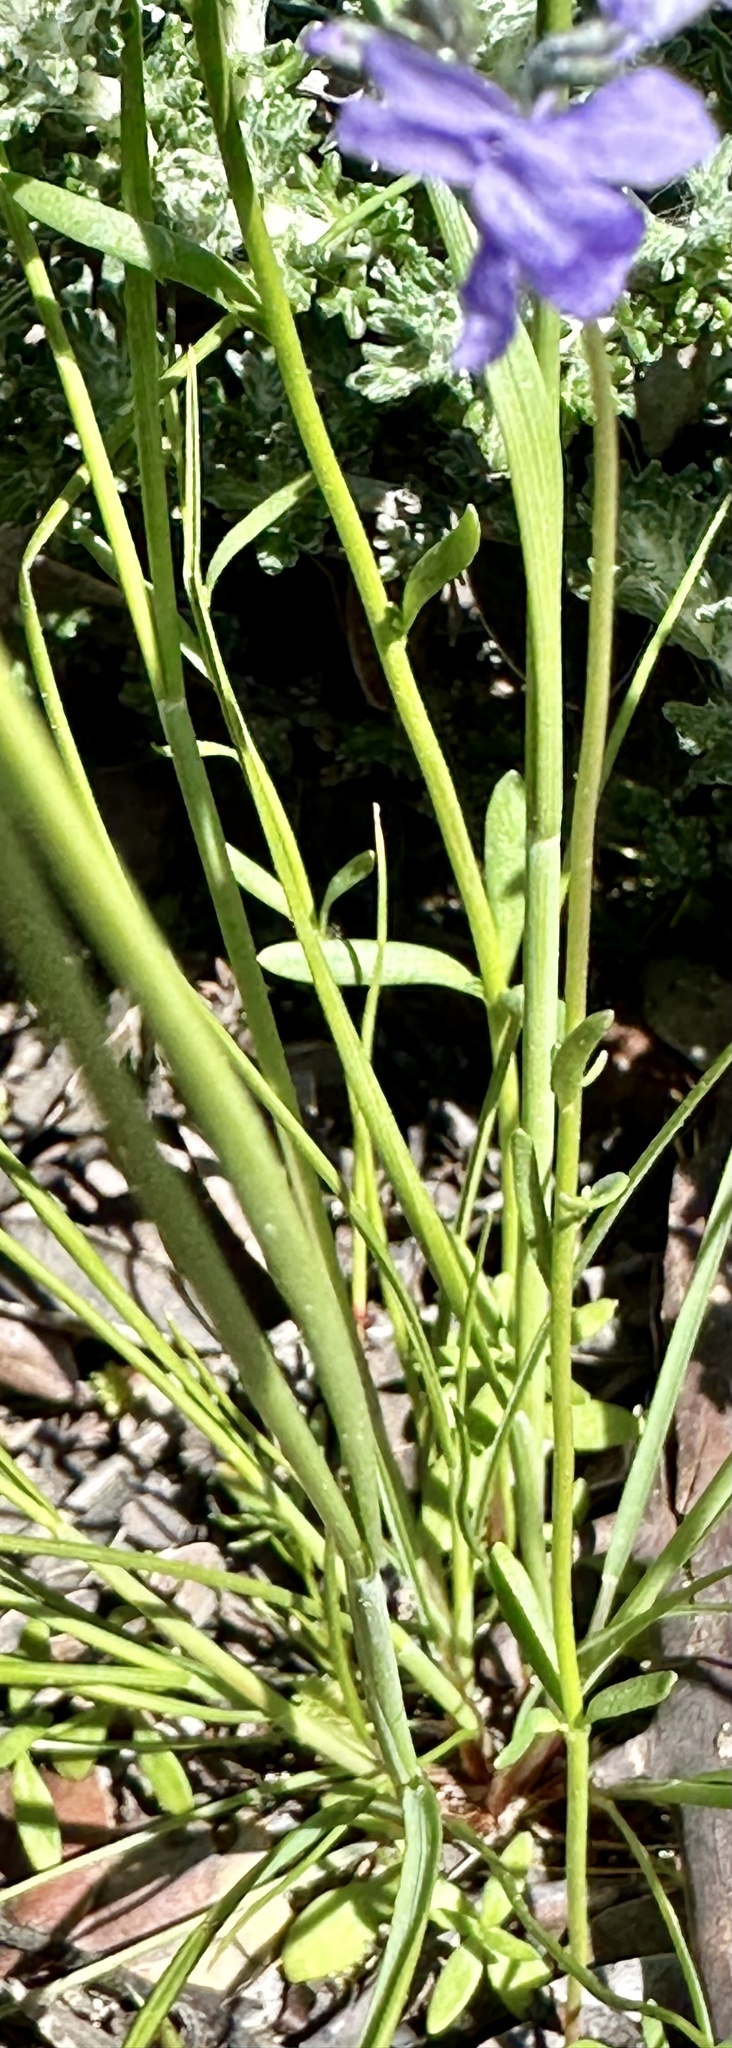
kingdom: Plantae
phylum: Tracheophyta
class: Magnoliopsida
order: Lamiales
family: Plantaginaceae
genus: Nuttallanthus
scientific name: Nuttallanthus texanus
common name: Texas toadflax
